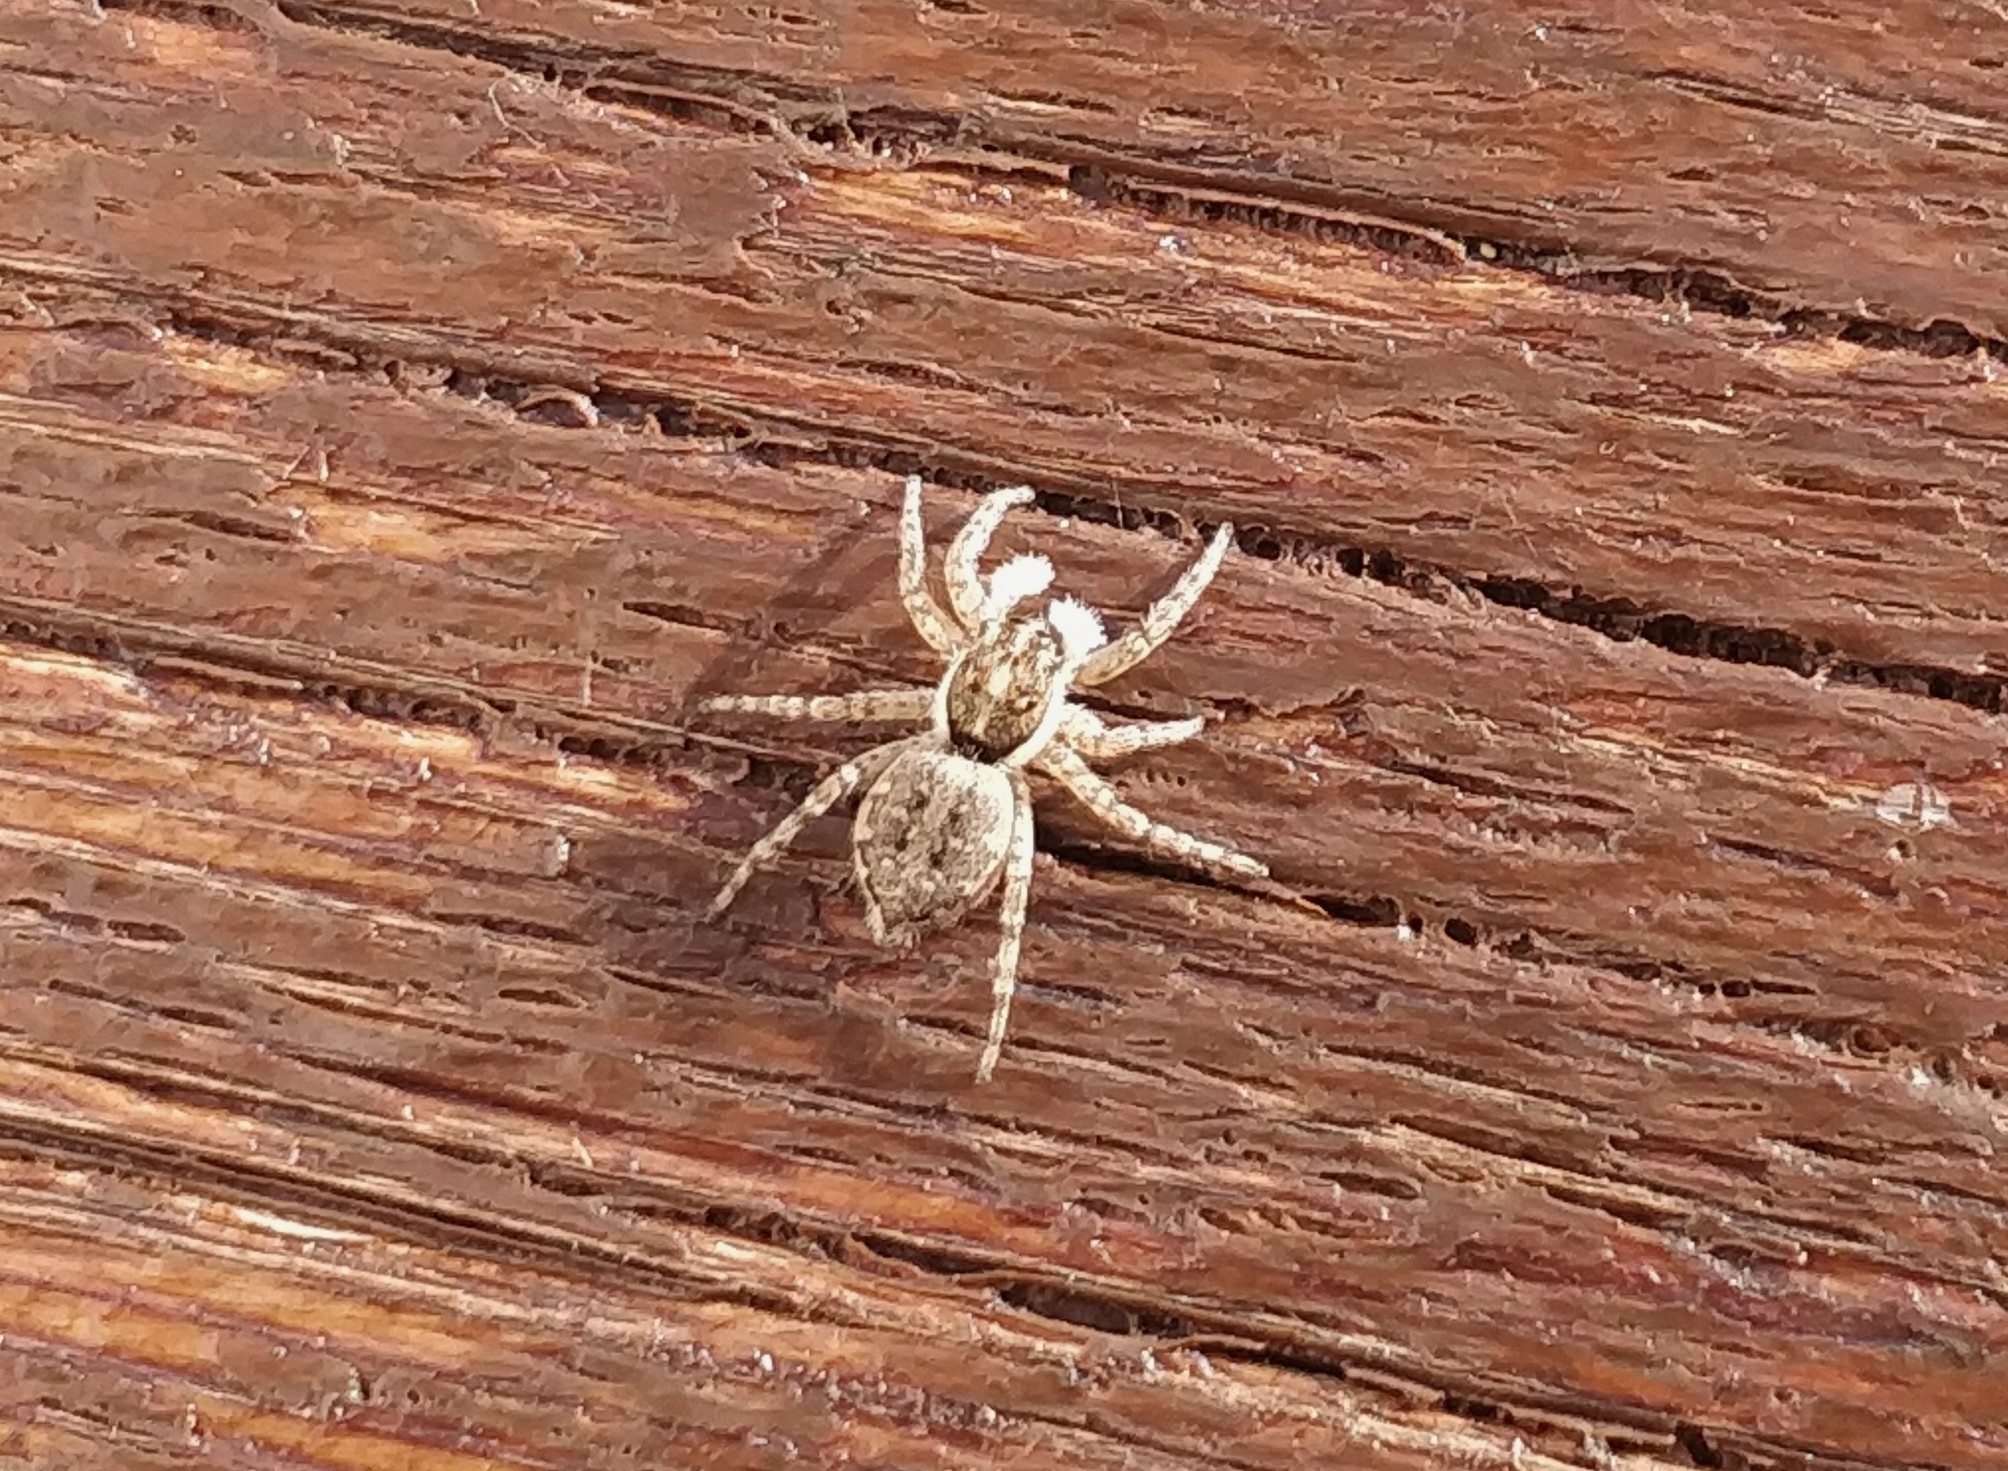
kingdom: Animalia
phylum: Arthropoda
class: Arachnida
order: Araneae
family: Salticidae
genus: Menemerus
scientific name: Menemerus semilimbatus
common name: Jumping spider
